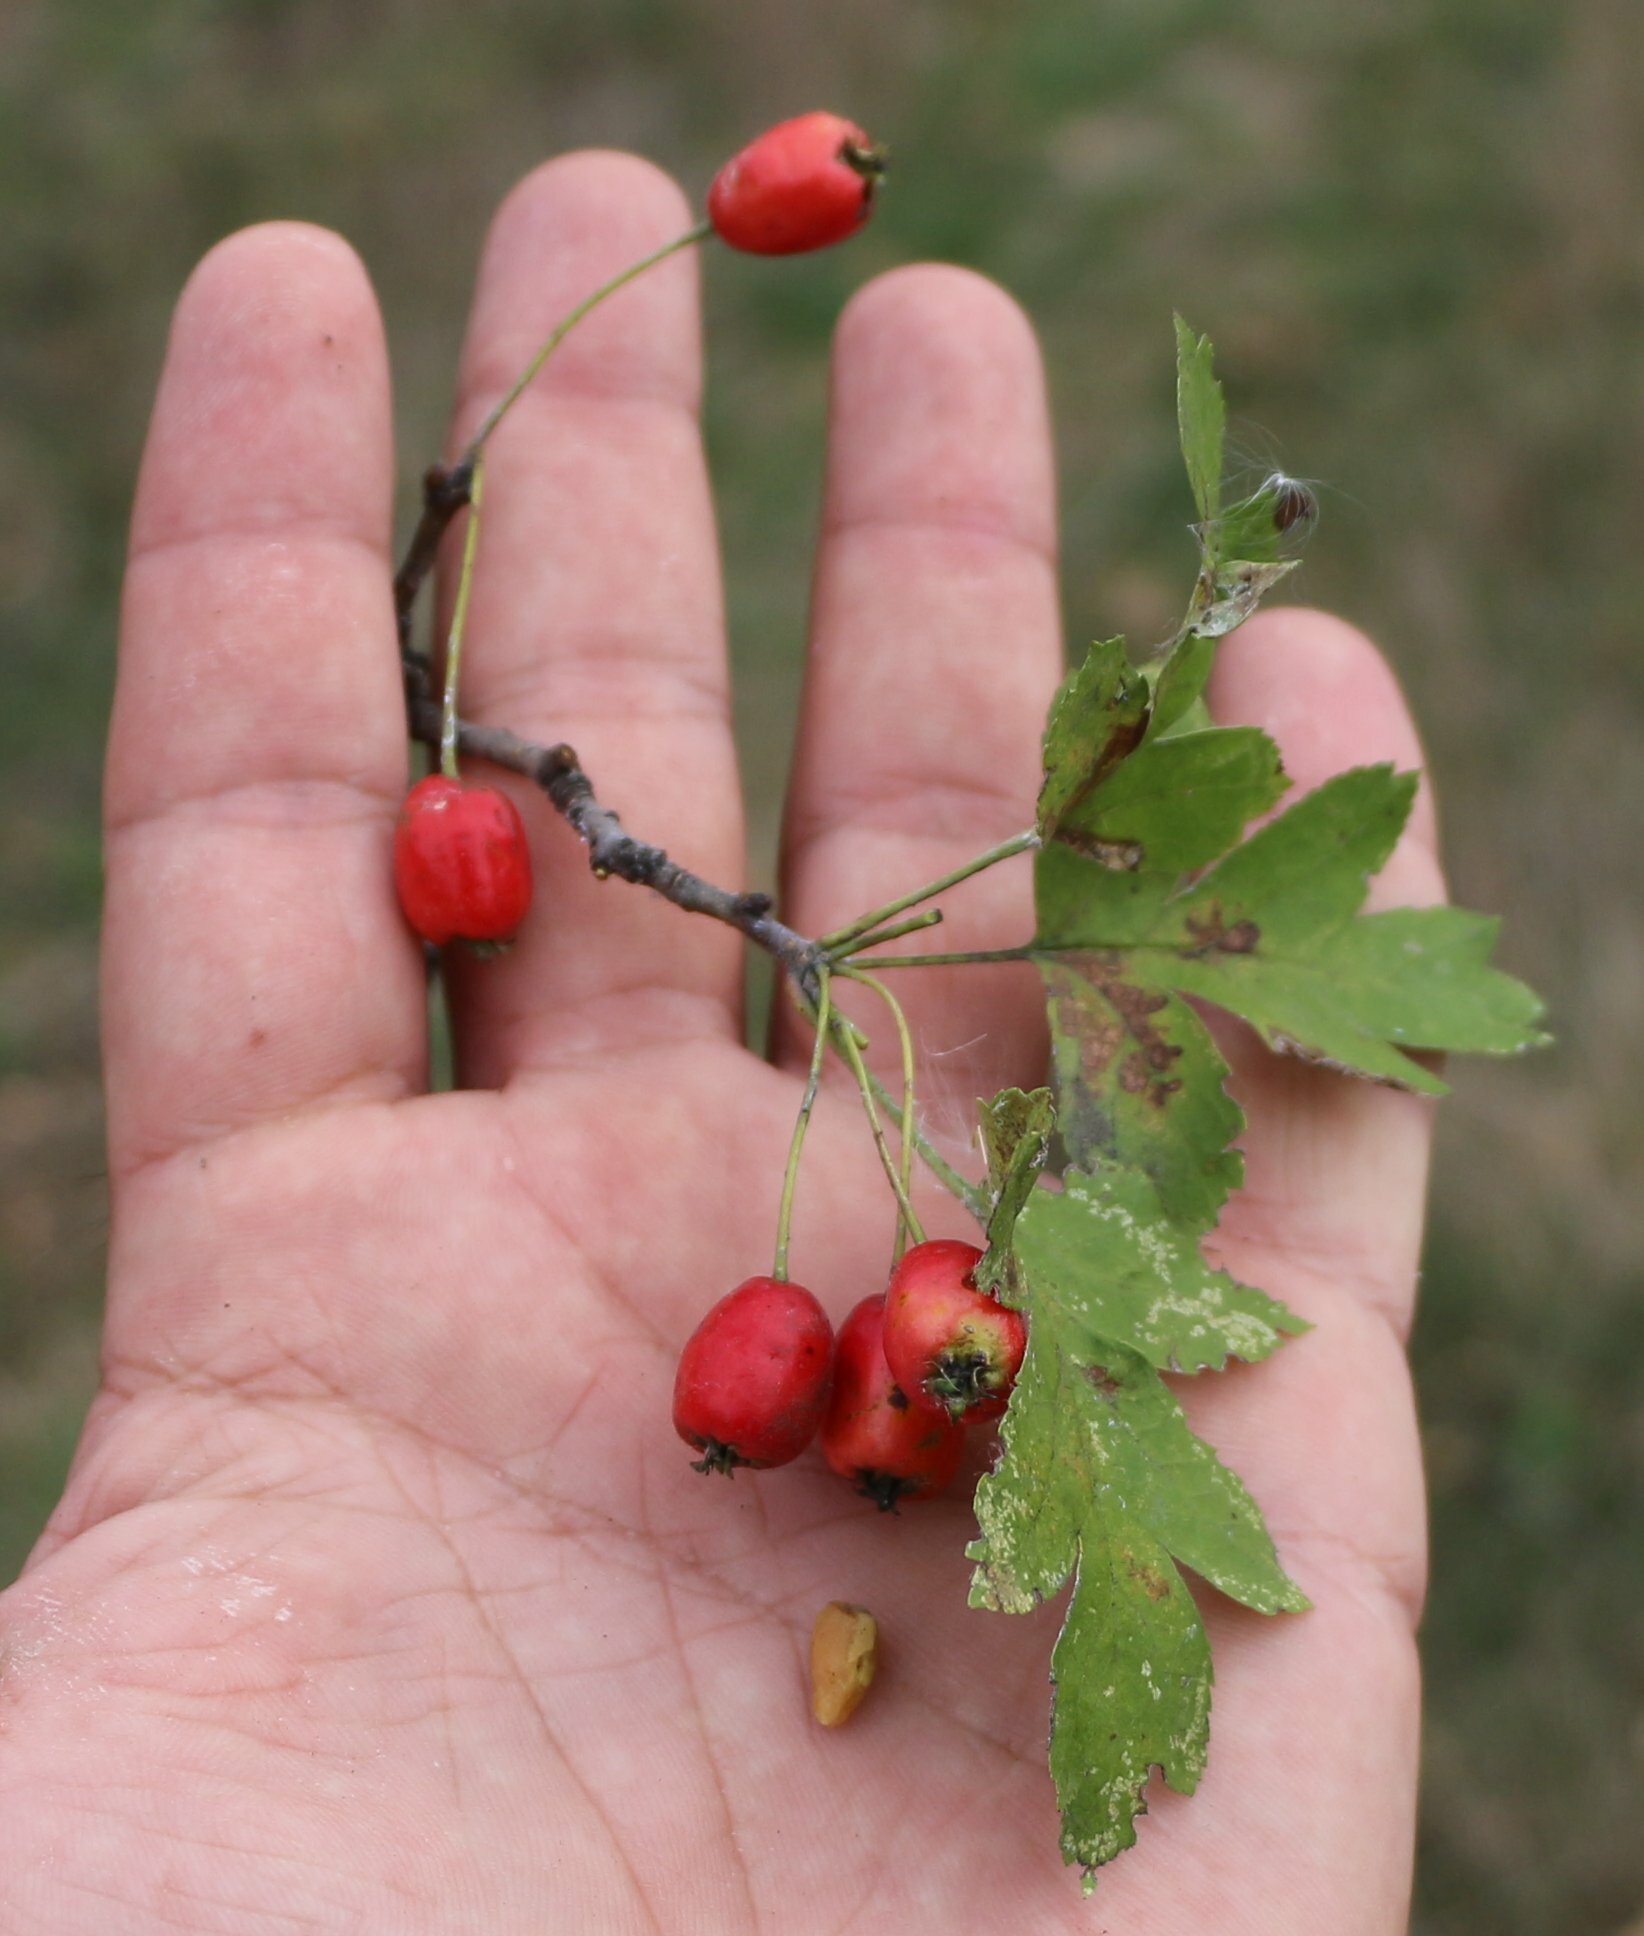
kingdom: Plantae
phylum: Tracheophyta
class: Magnoliopsida
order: Rosales
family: Rosaceae
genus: Crataegus
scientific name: Crataegus monogyna
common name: Hawthorn
